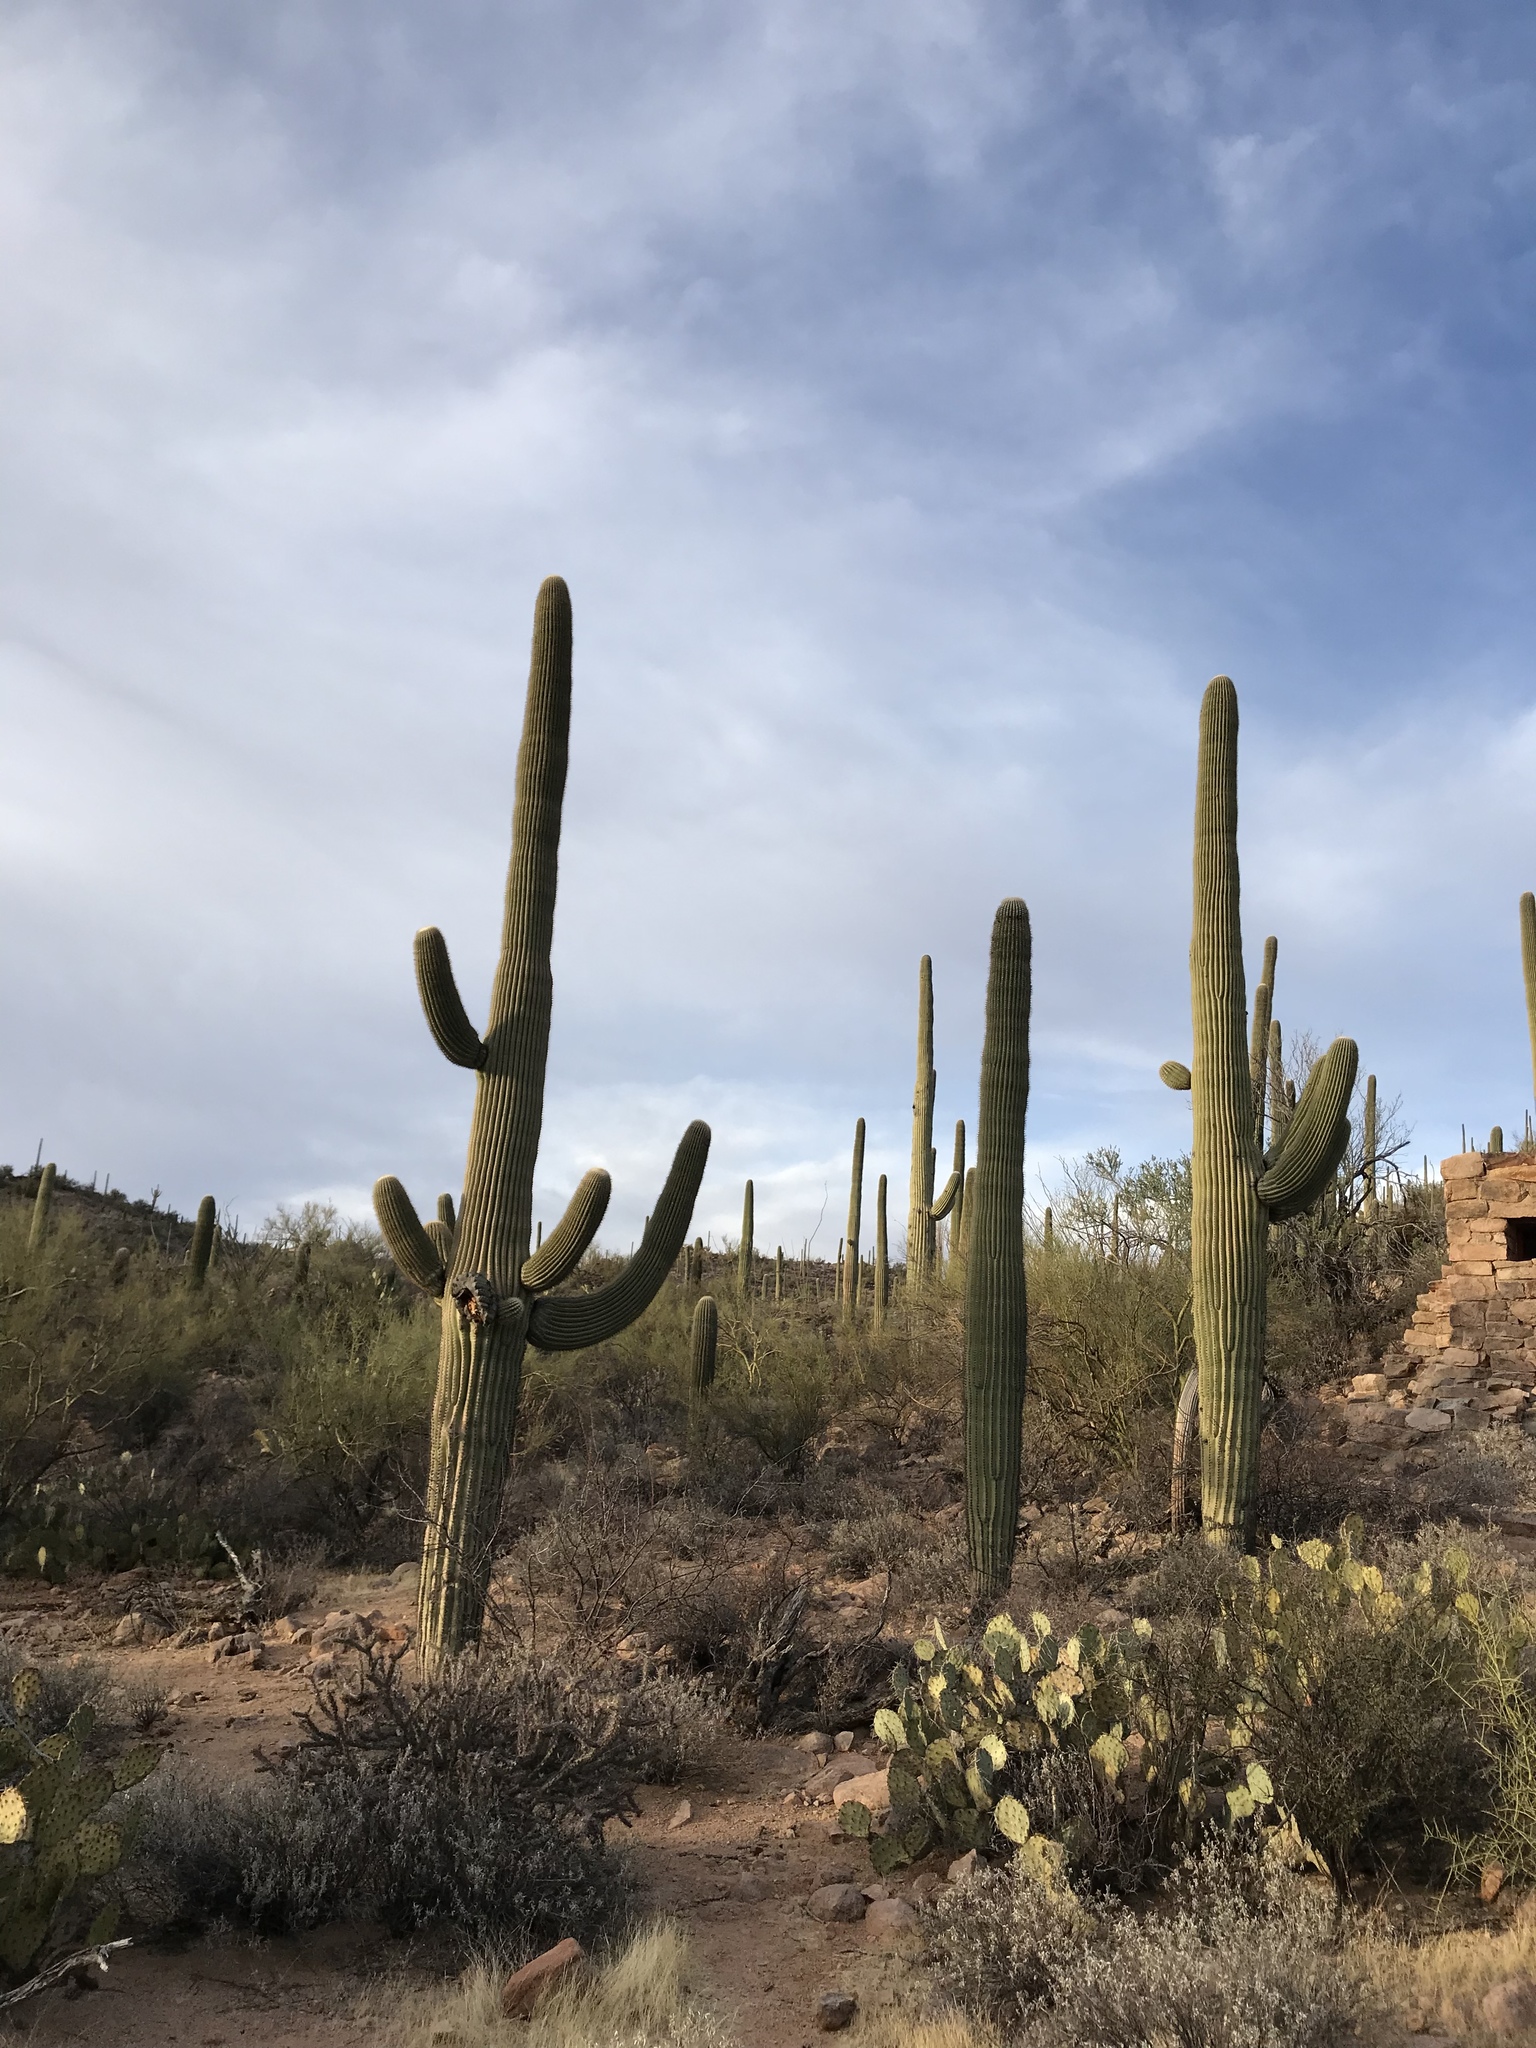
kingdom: Plantae
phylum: Tracheophyta
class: Magnoliopsida
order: Caryophyllales
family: Cactaceae
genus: Carnegiea
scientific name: Carnegiea gigantea
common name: Saguaro
